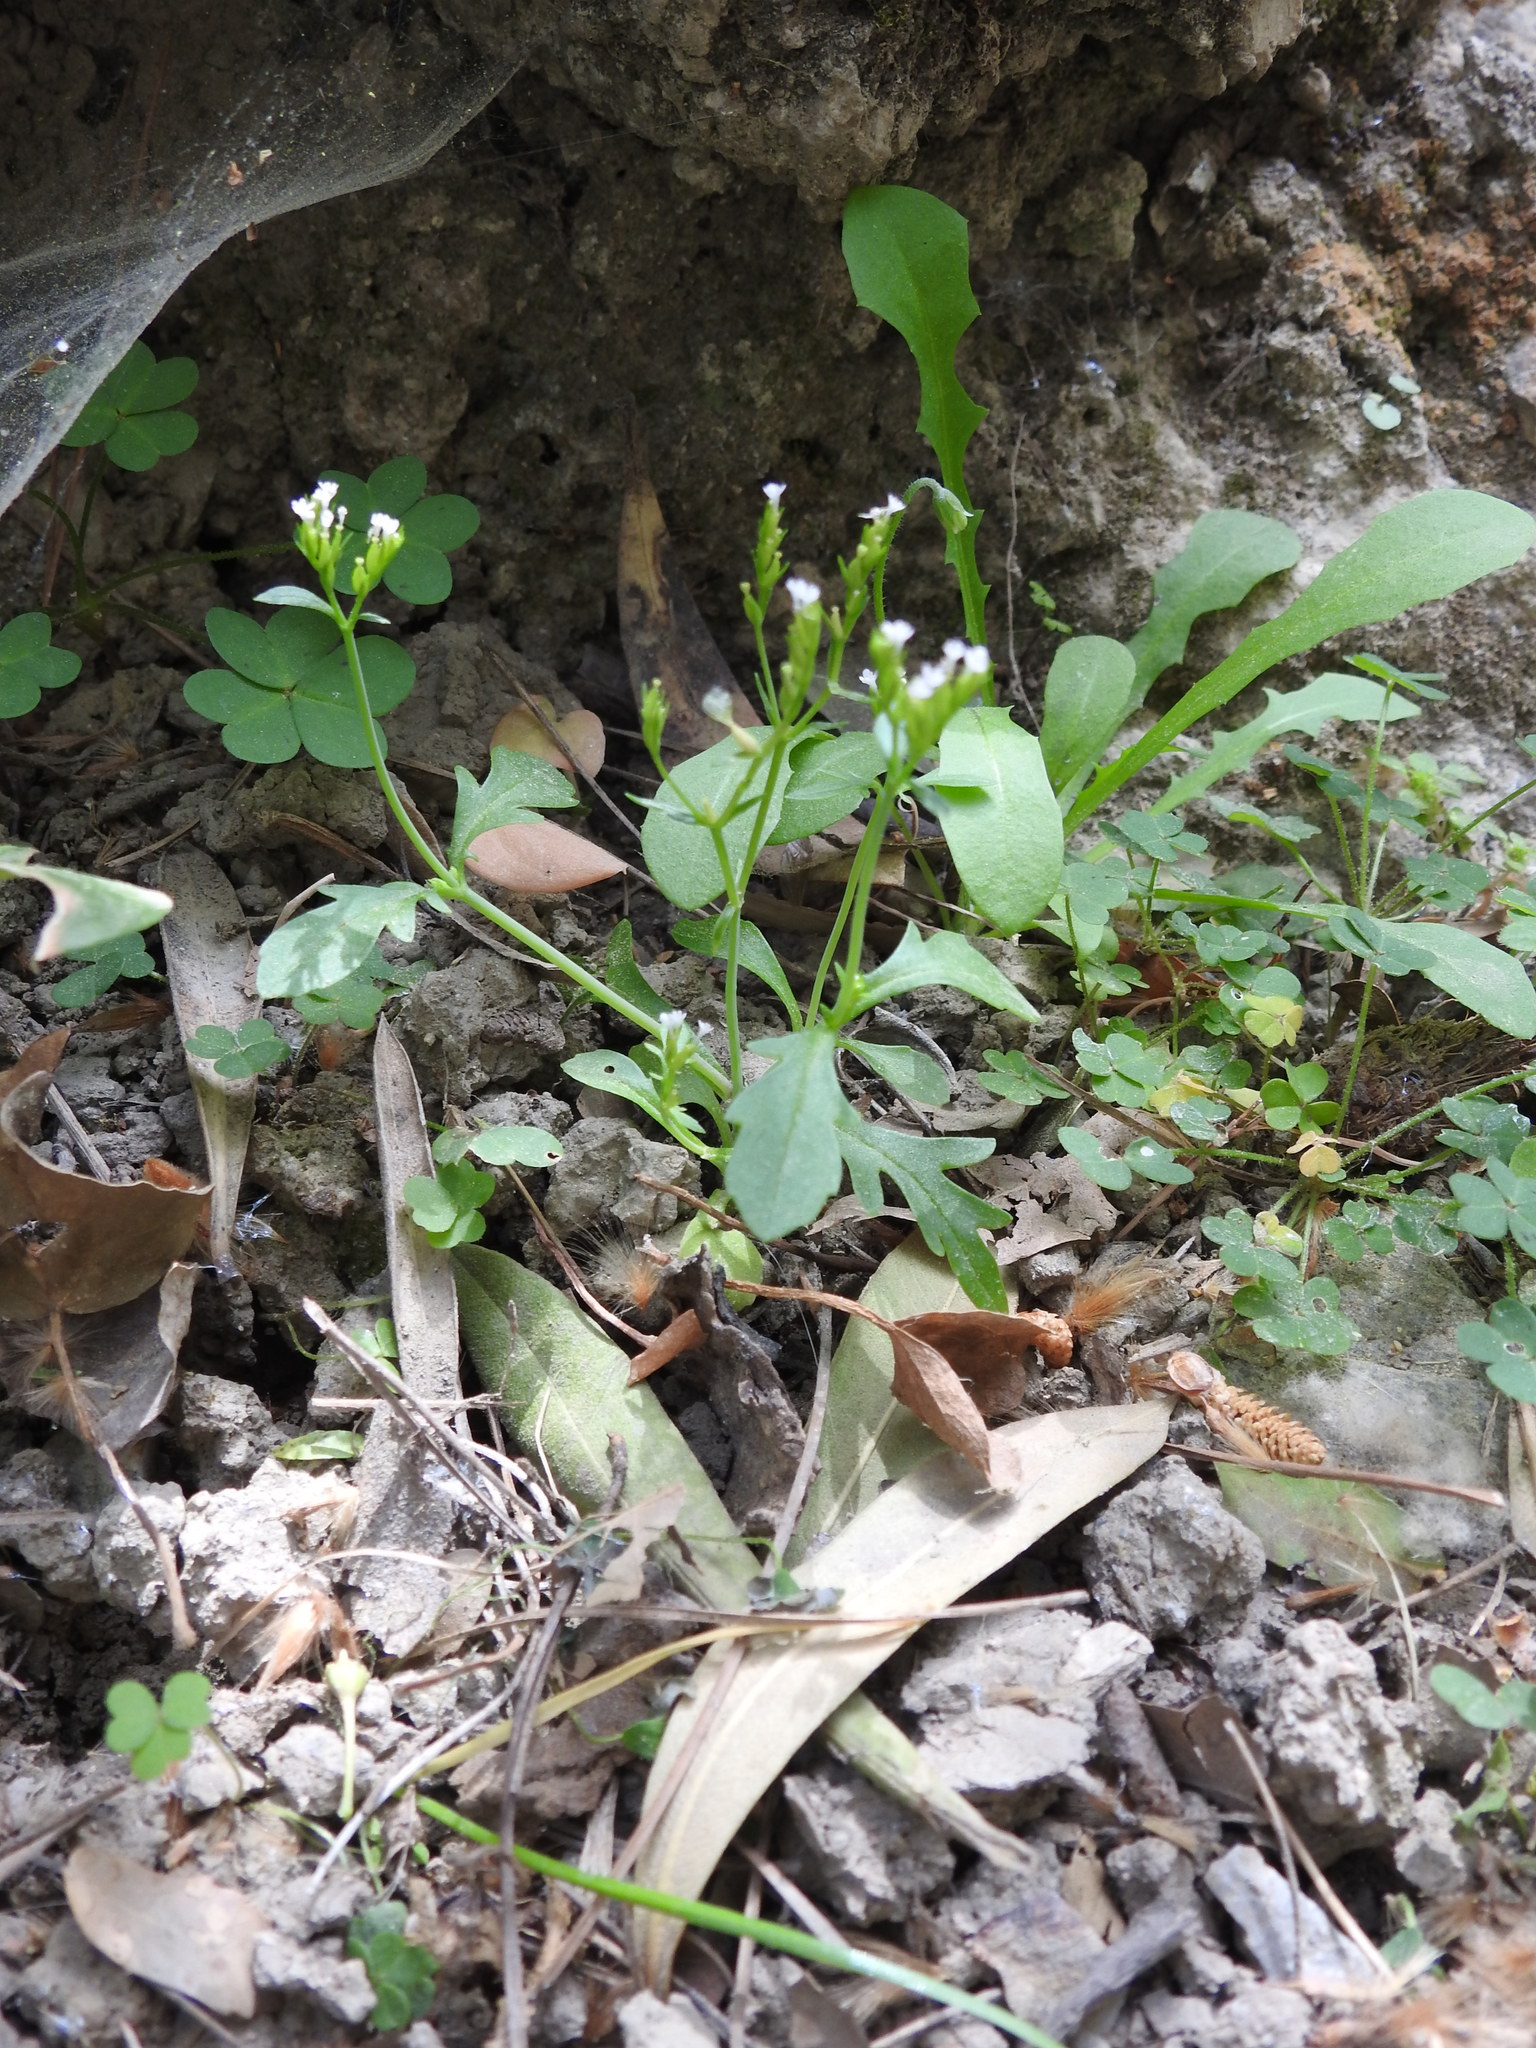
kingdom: Plantae
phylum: Tracheophyta
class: Magnoliopsida
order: Dipsacales
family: Caprifoliaceae
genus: Centranthus
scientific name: Centranthus calcitrapae
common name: Annual valerian
